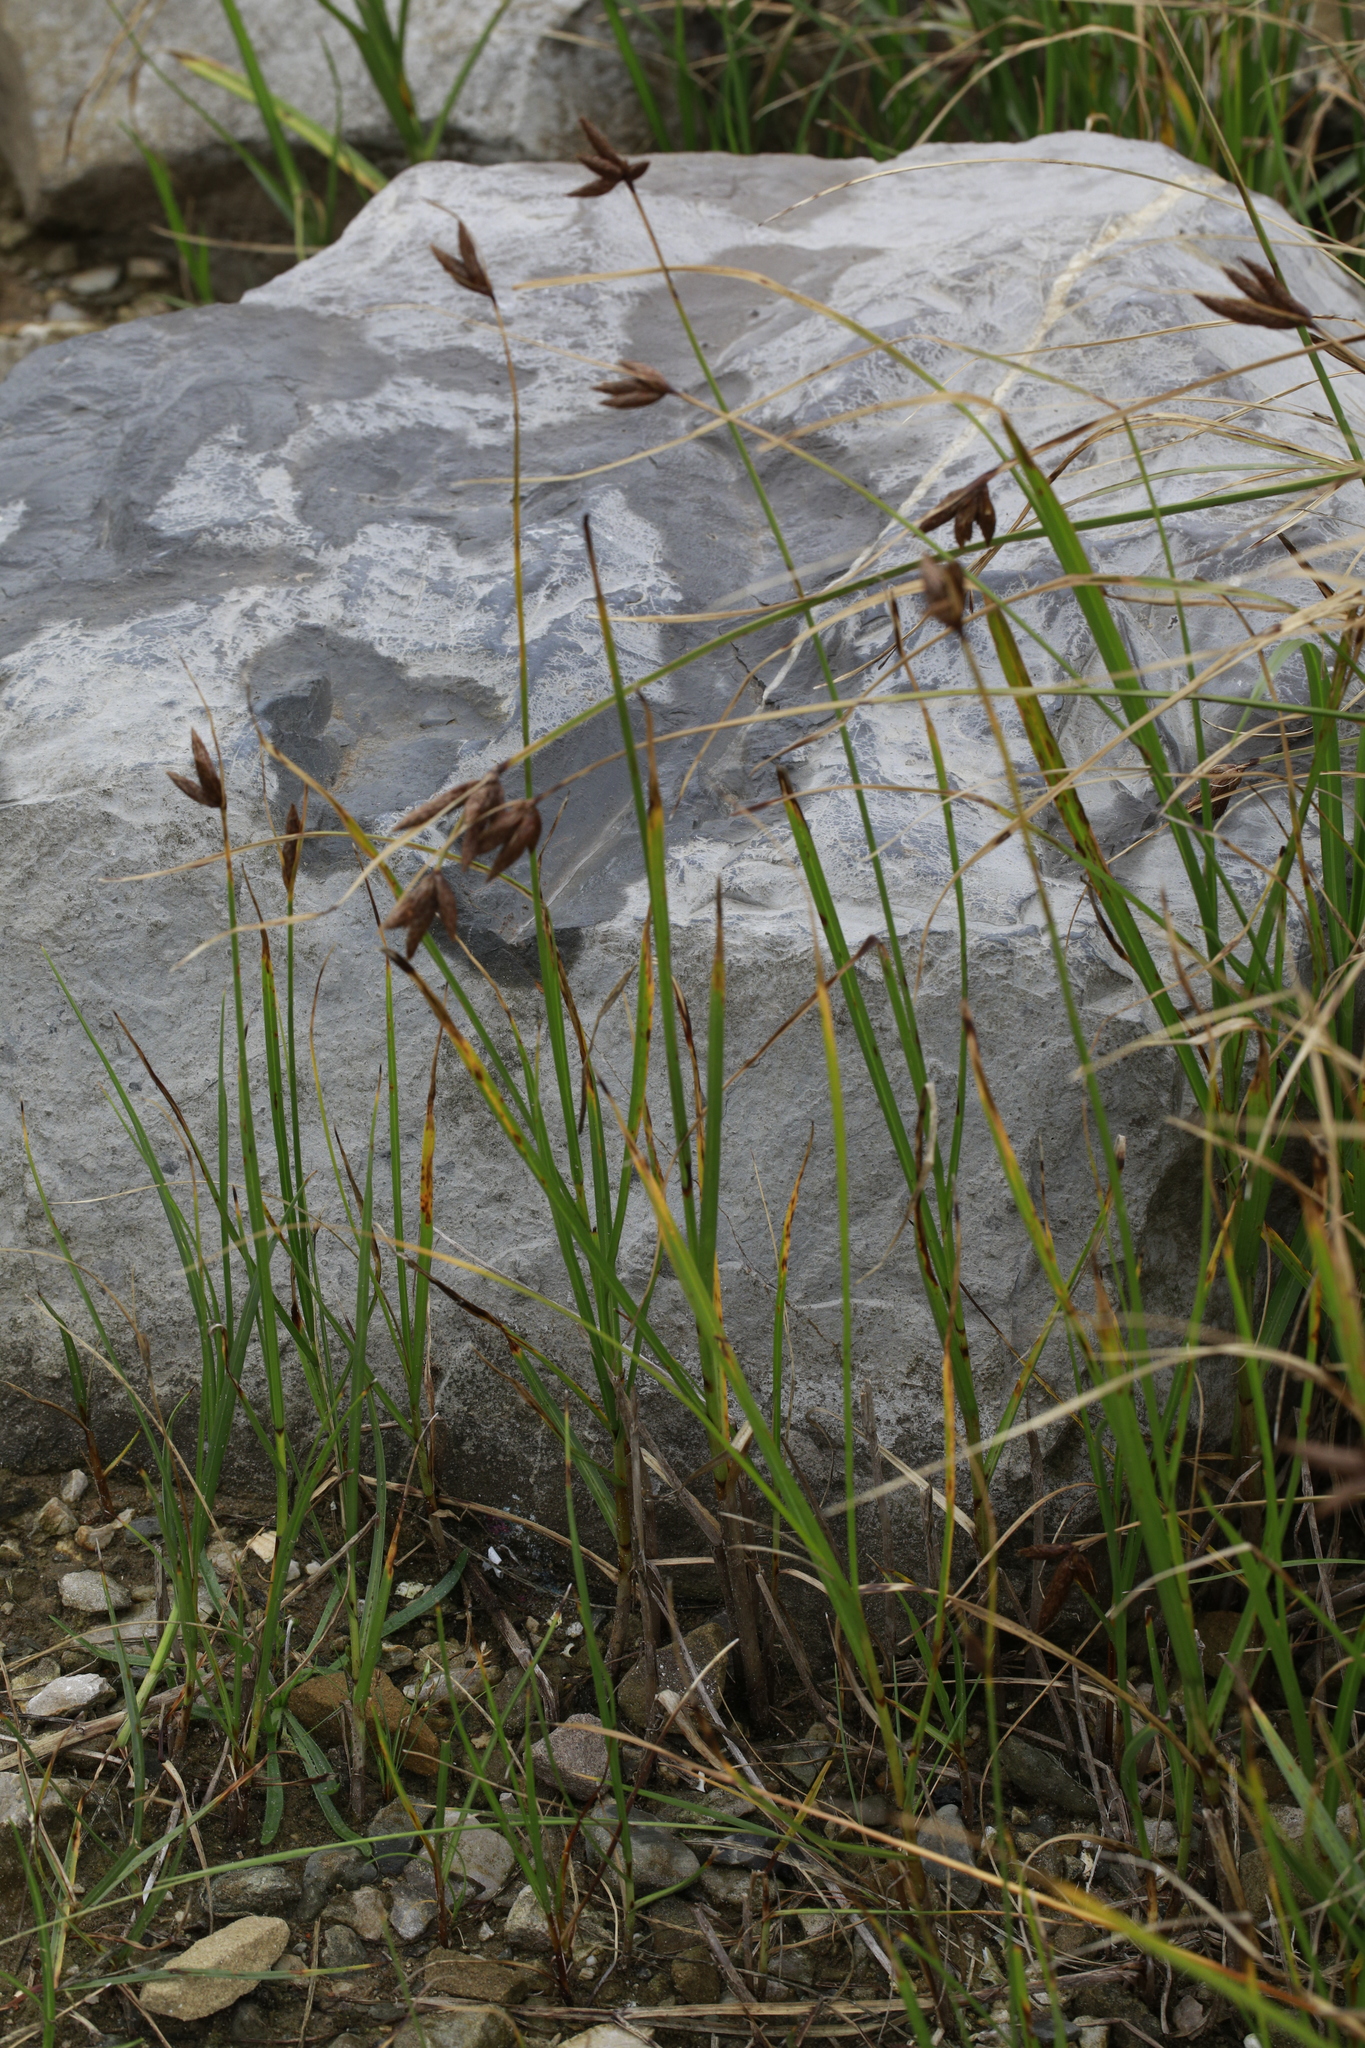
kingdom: Plantae
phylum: Tracheophyta
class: Liliopsida
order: Poales
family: Cyperaceae
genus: Bolboschoenus
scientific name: Bolboschoenus maritimus
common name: Sea club-rush
